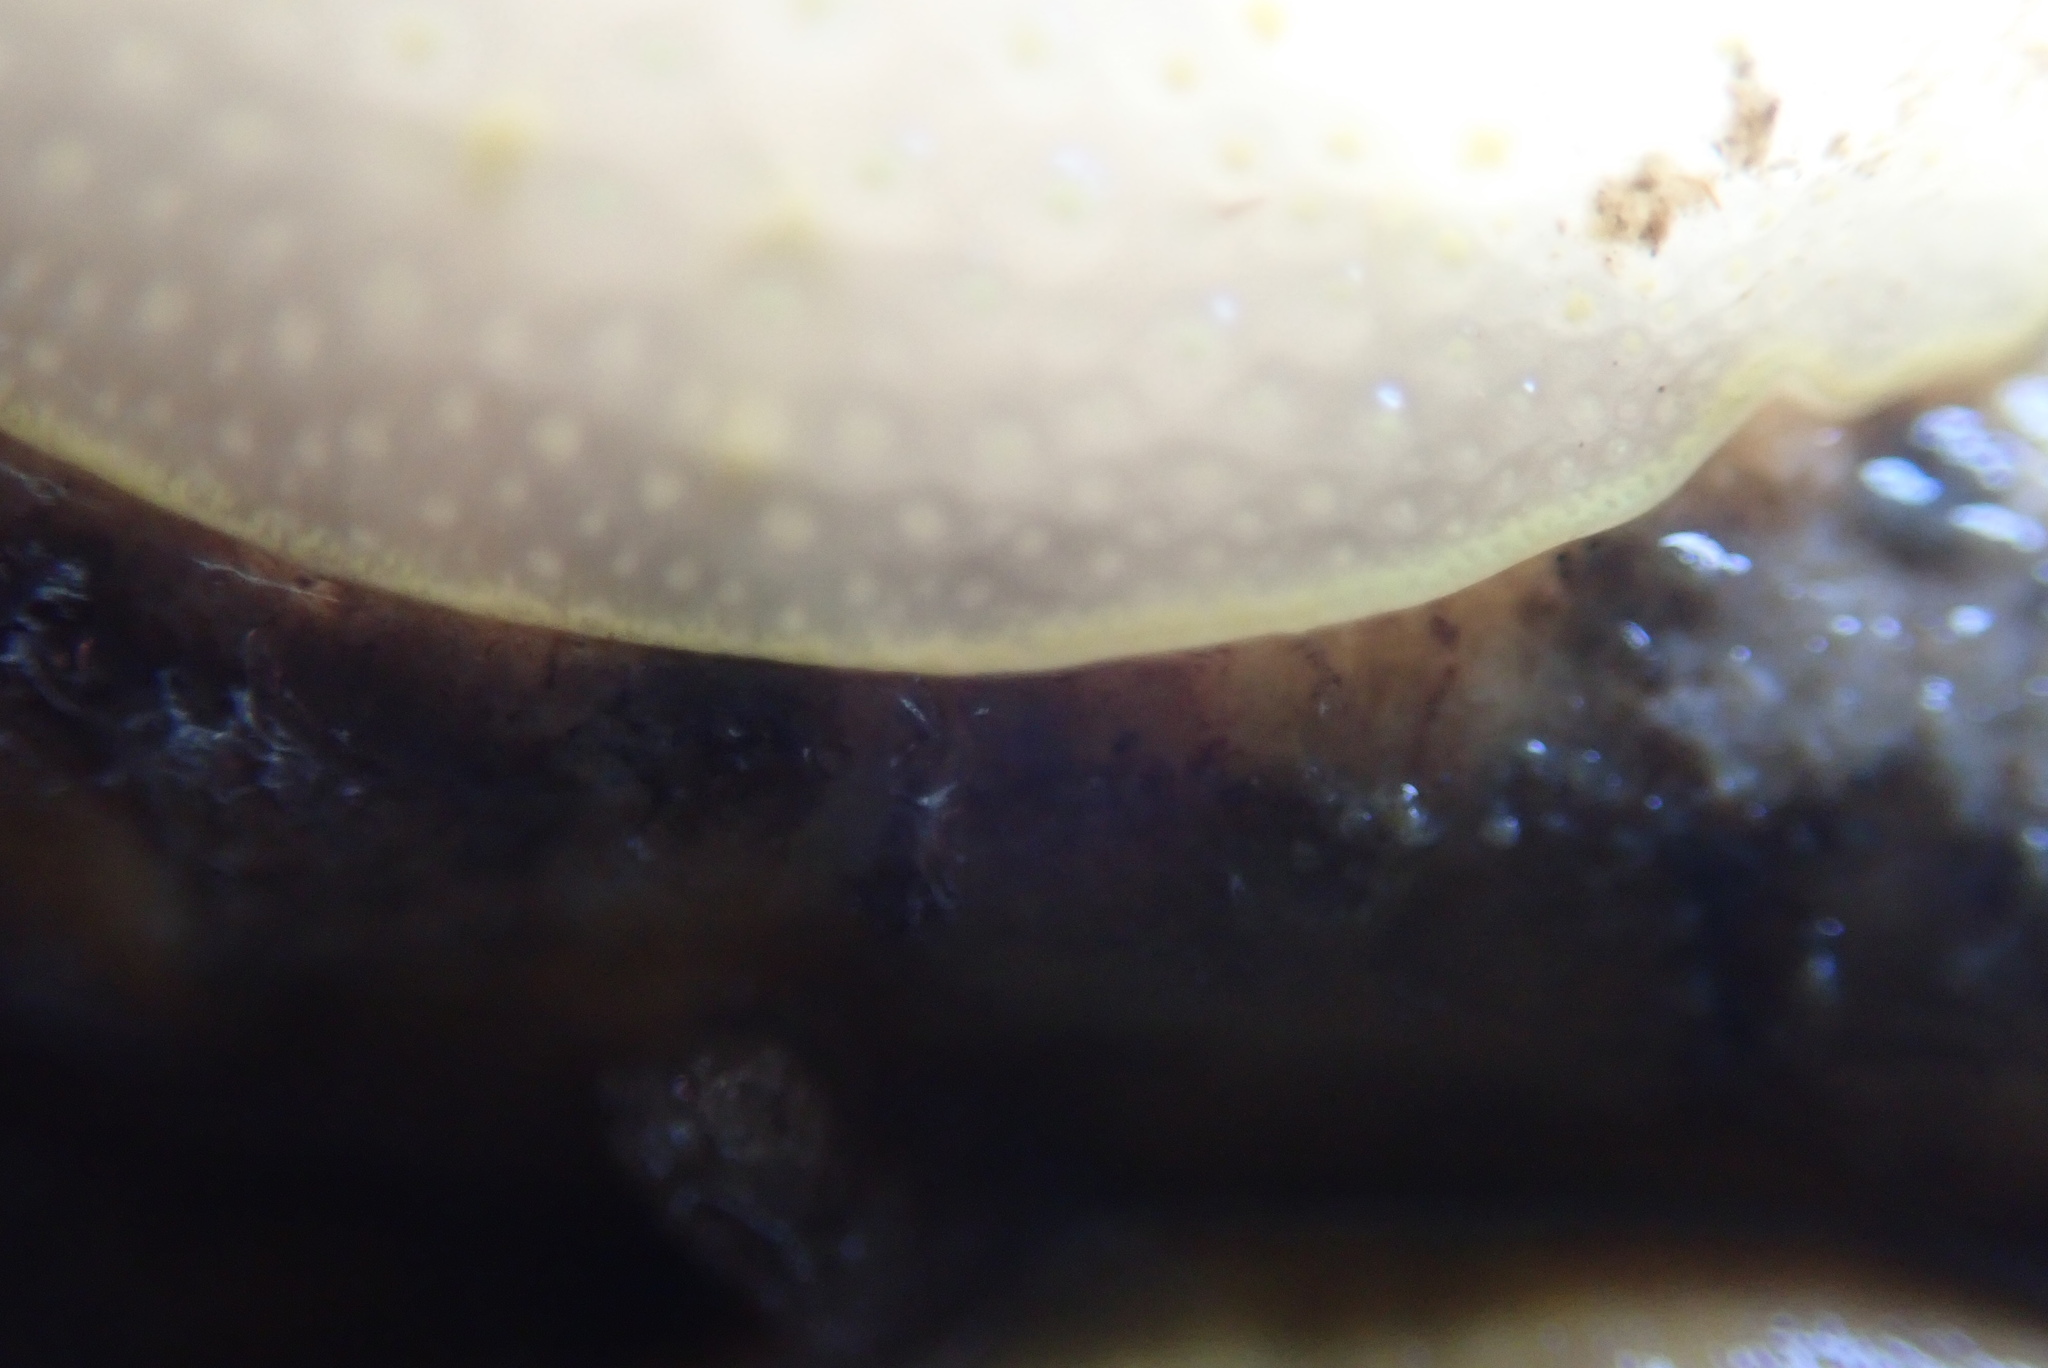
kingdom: Animalia
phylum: Mollusca
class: Gastropoda
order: Nudibranchia
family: Cadlinidae
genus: Cadlina
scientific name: Cadlina luteomarginata
